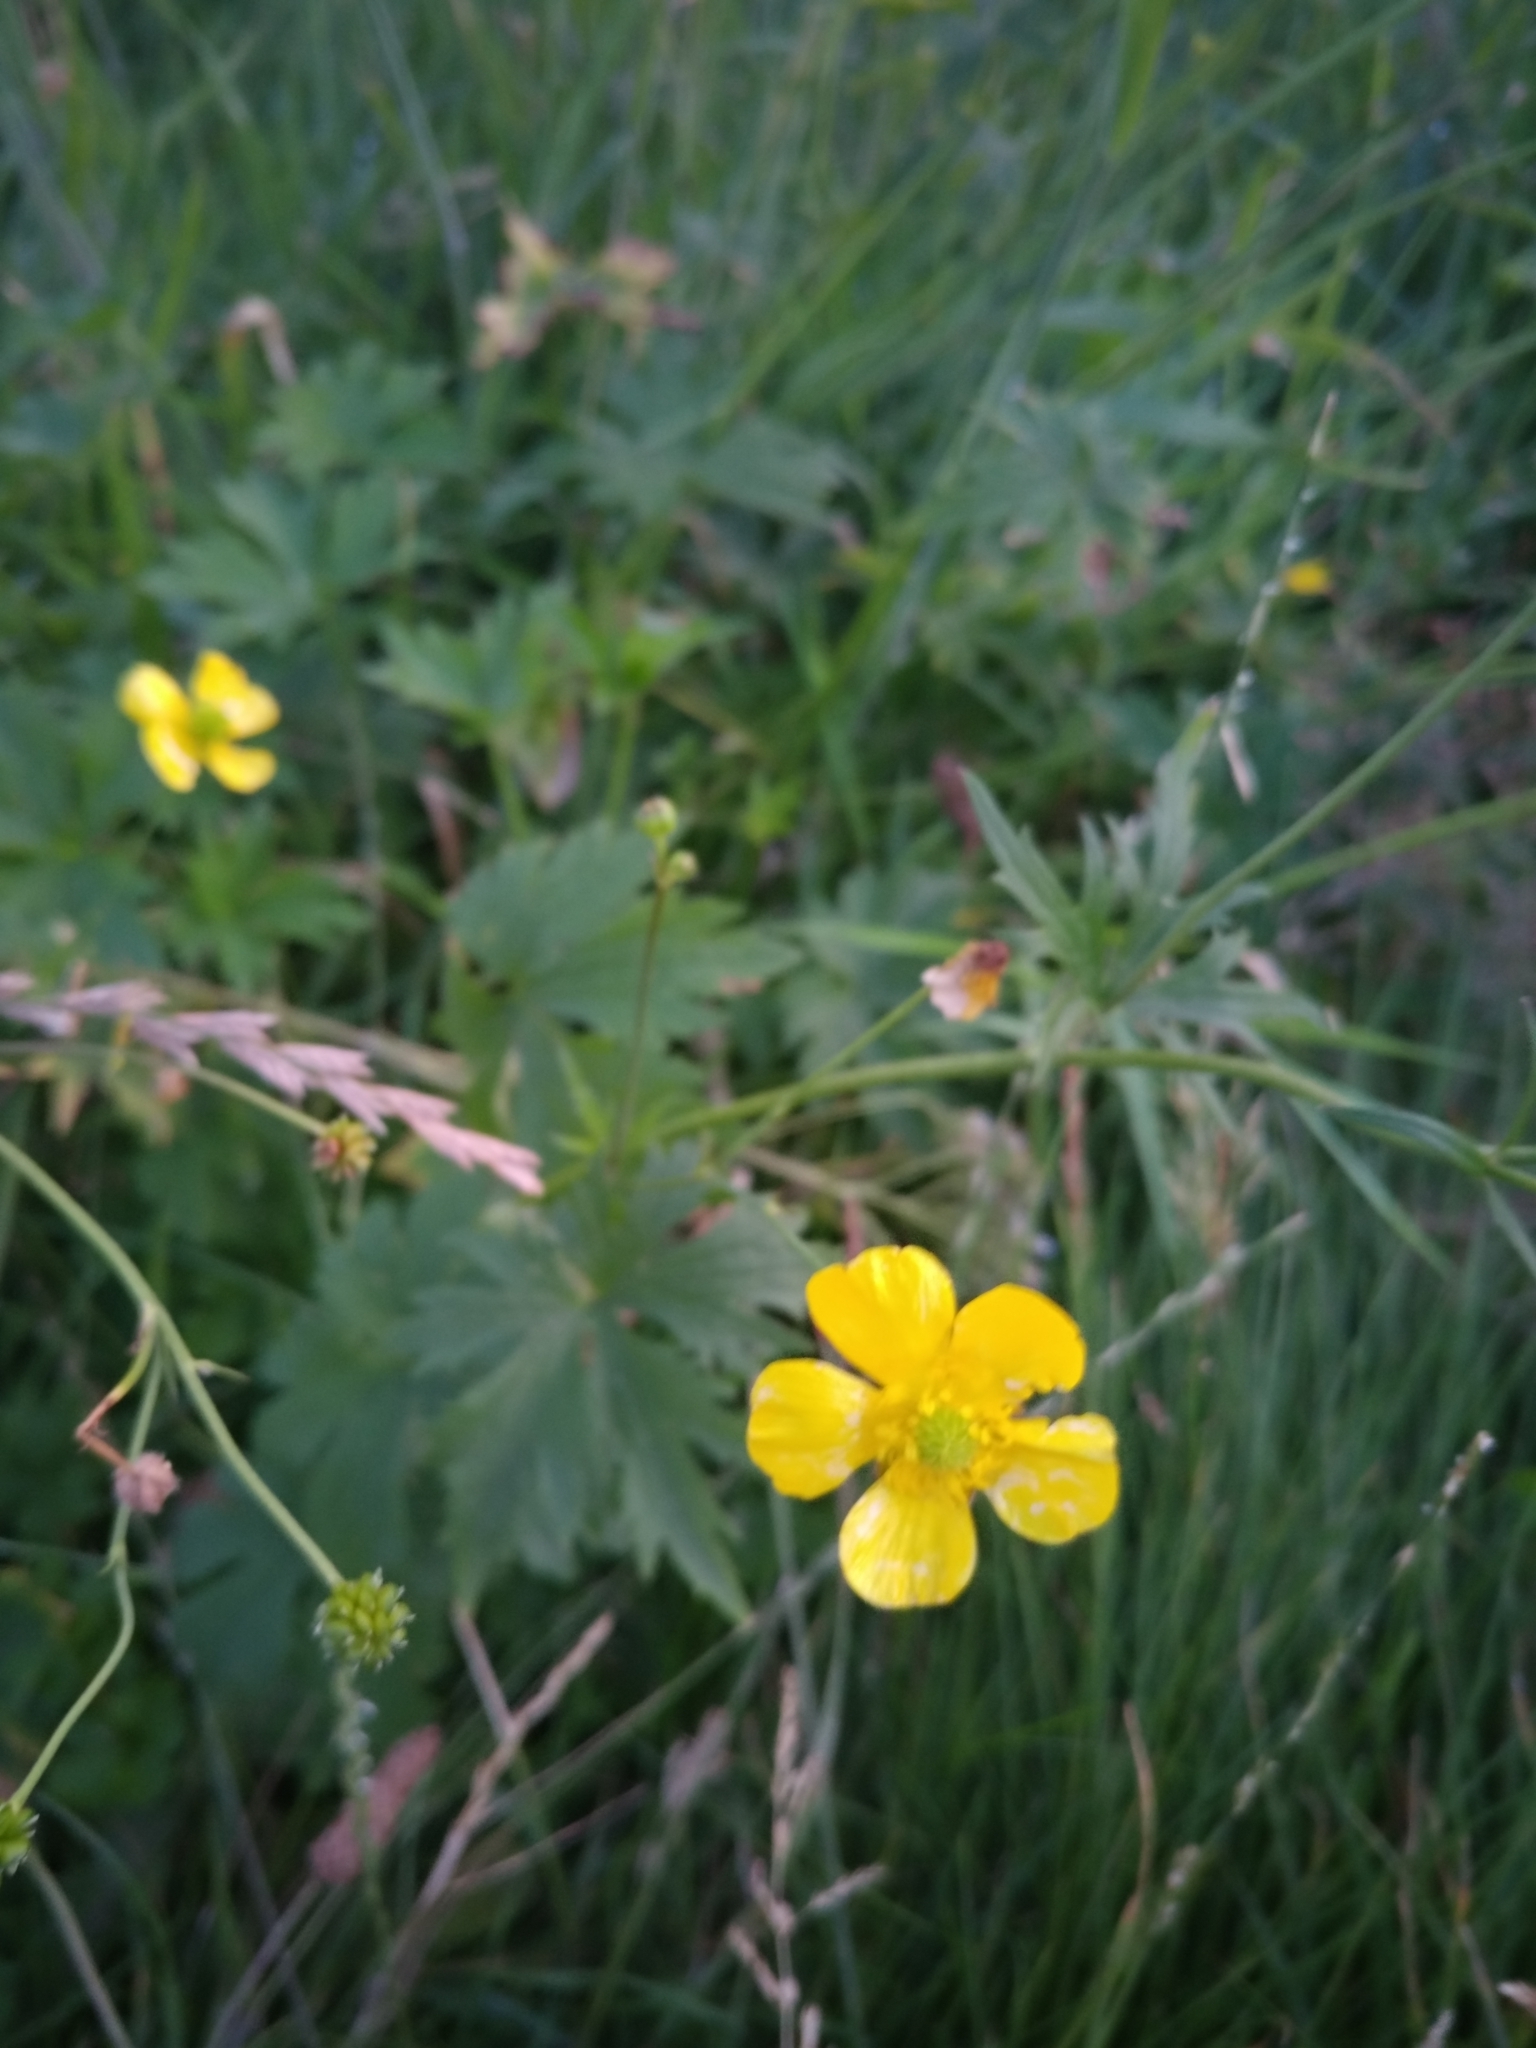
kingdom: Plantae
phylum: Tracheophyta
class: Magnoliopsida
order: Ranunculales
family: Ranunculaceae
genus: Ranunculus
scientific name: Ranunculus acris
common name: Meadow buttercup
